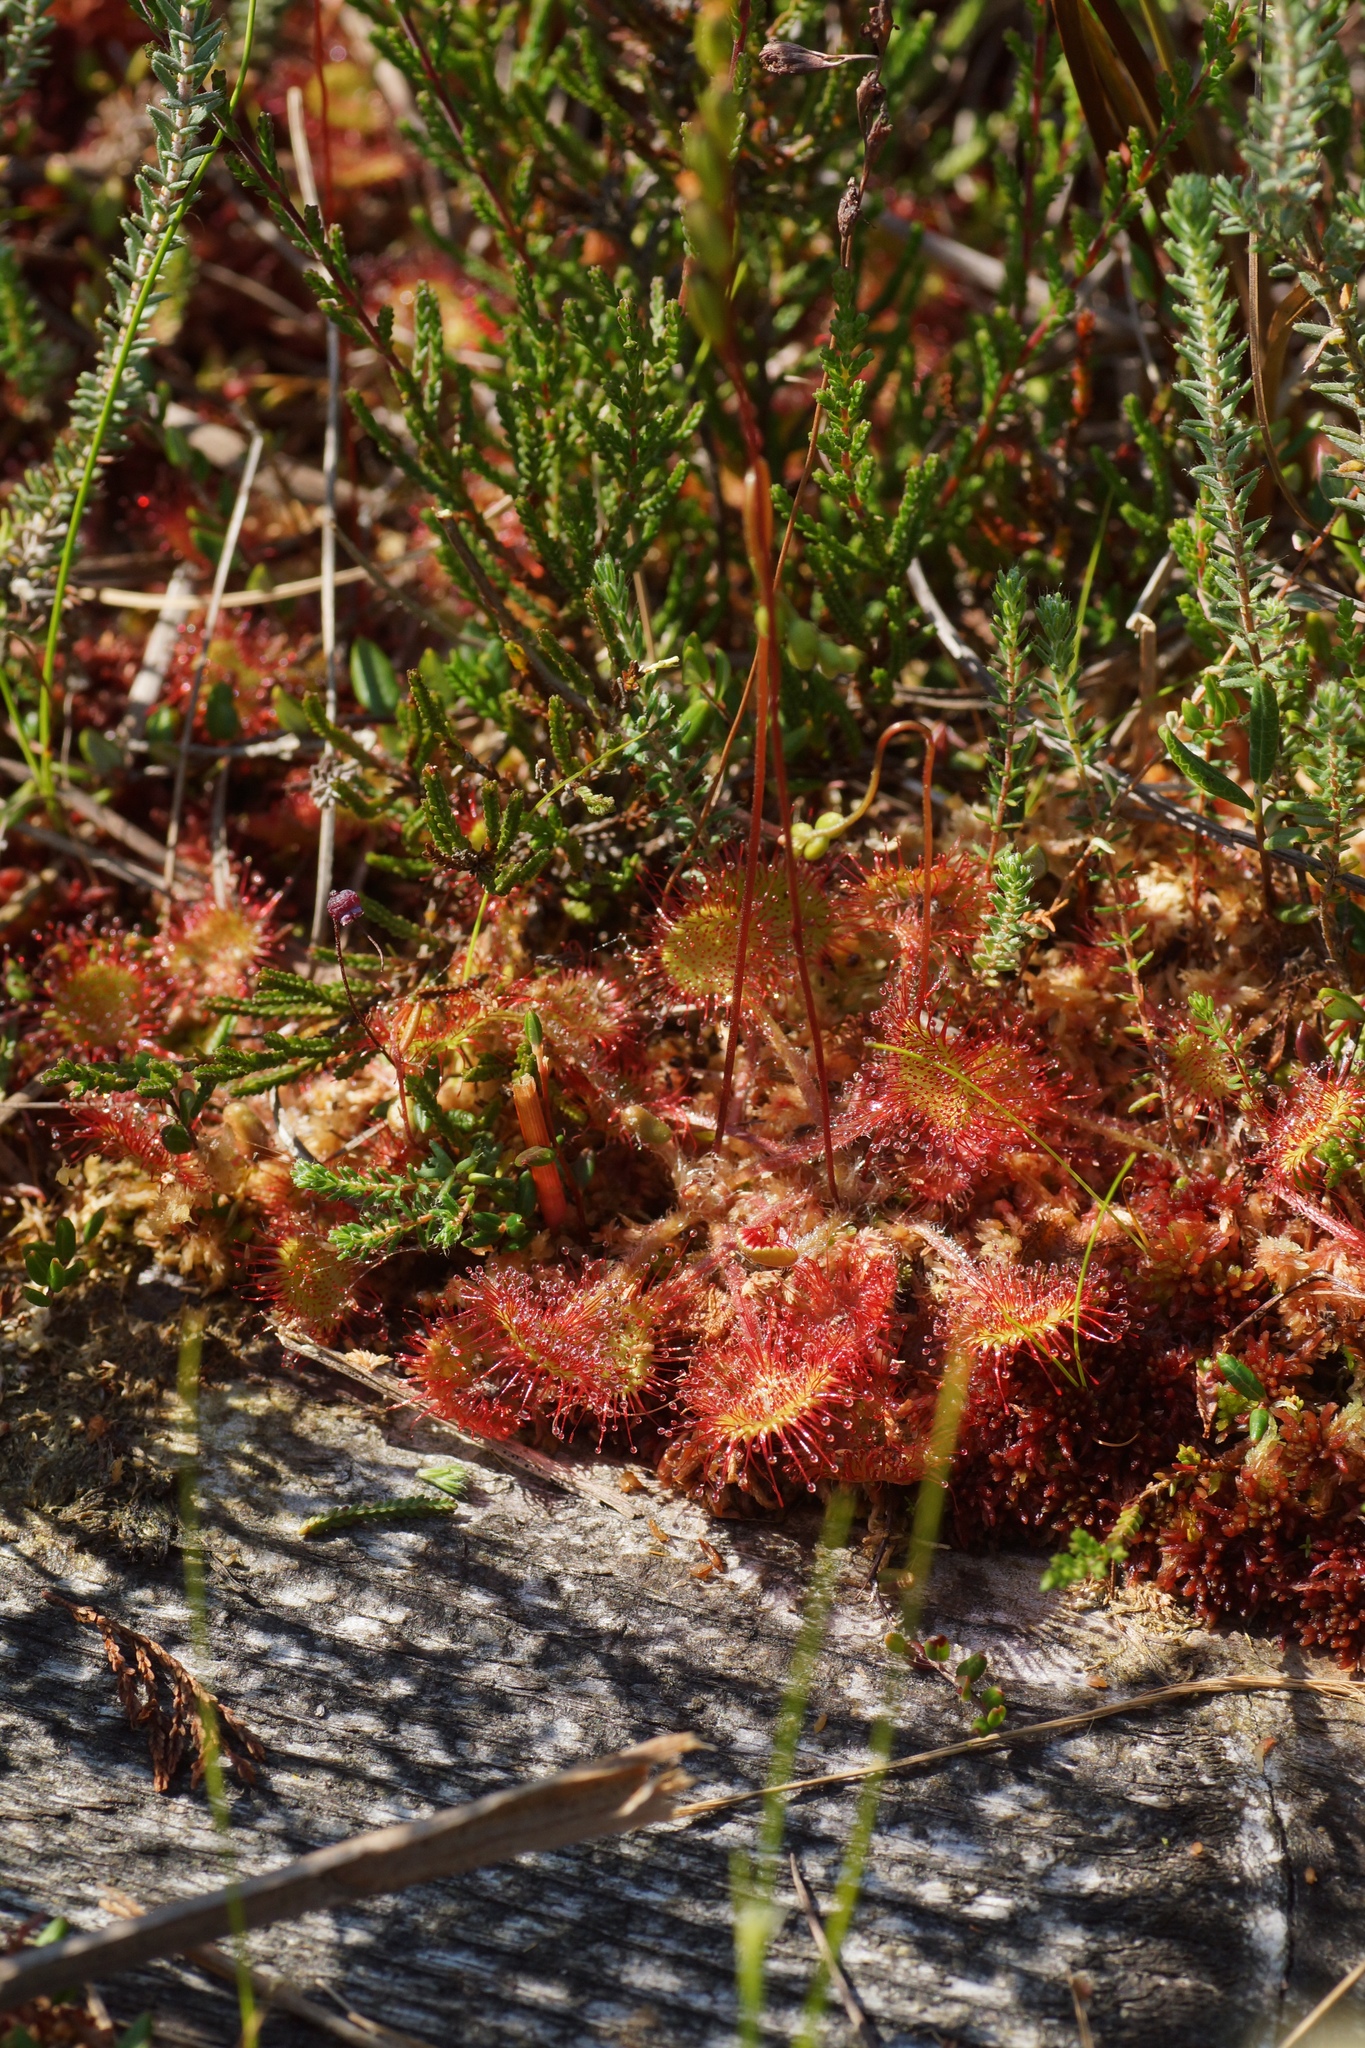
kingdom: Plantae
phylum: Tracheophyta
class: Magnoliopsida
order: Caryophyllales
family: Droseraceae
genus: Drosera
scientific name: Drosera rotundifolia
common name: Round-leaved sundew
